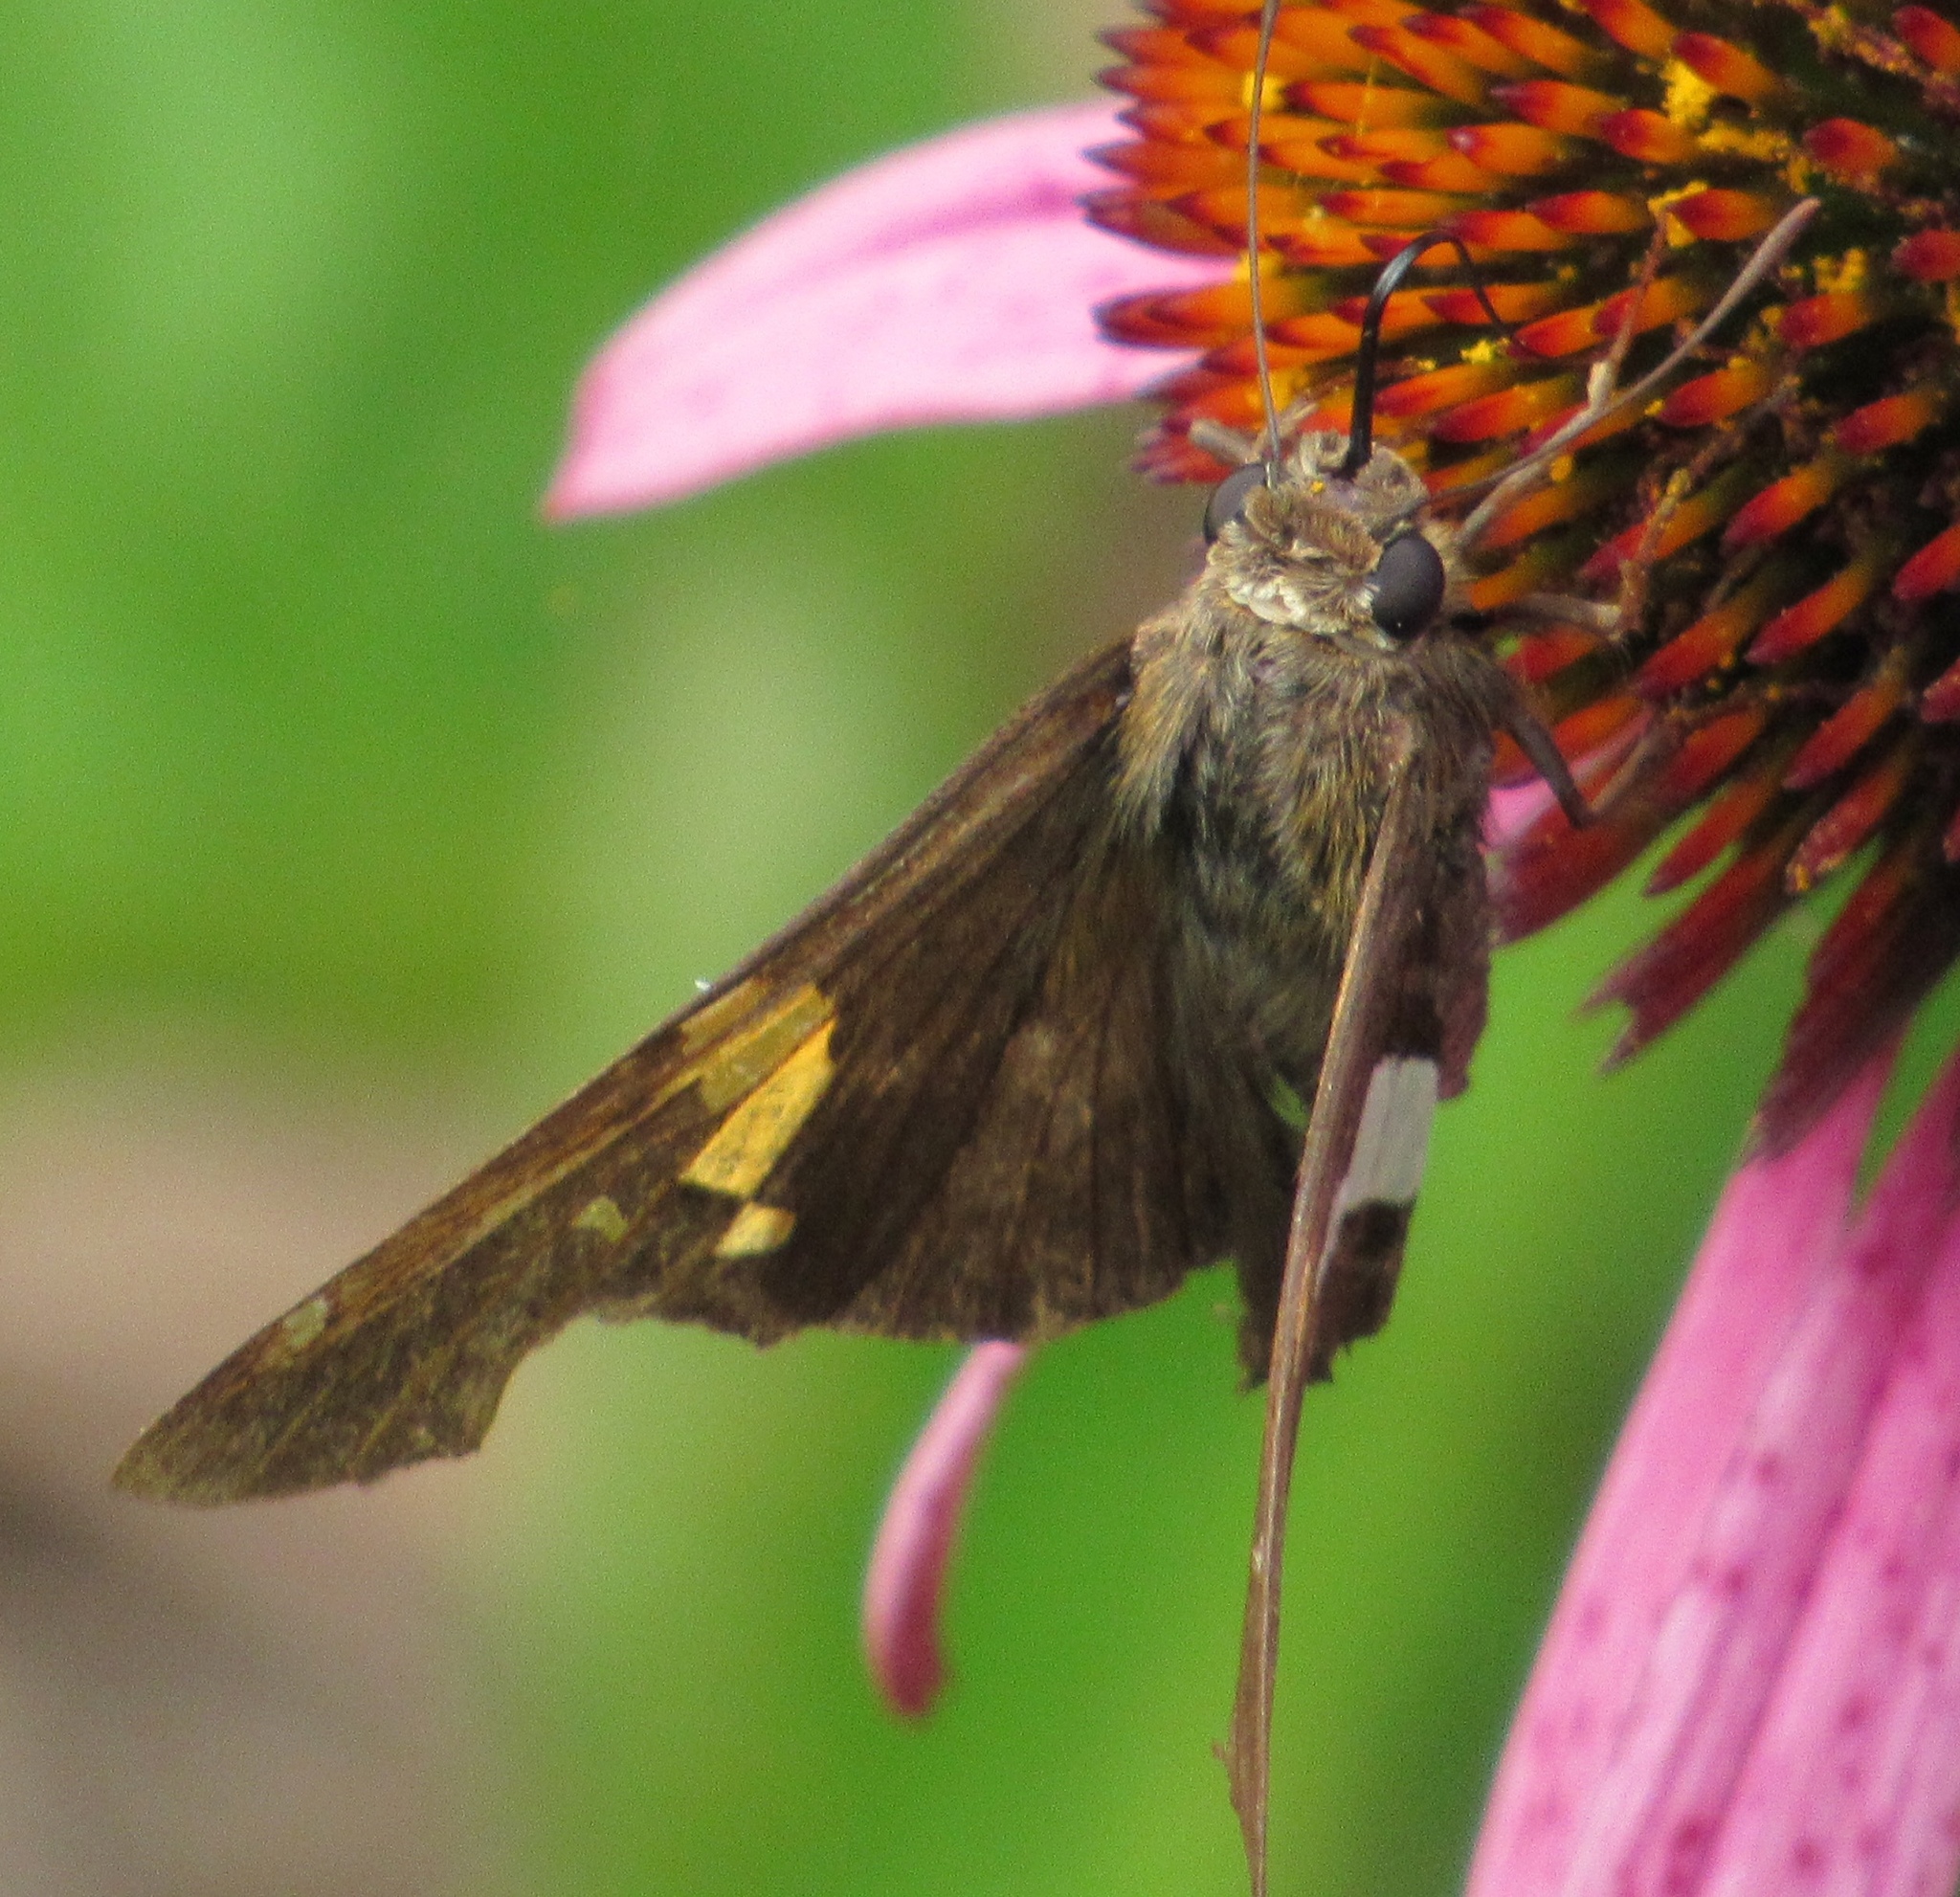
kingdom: Animalia
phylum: Arthropoda
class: Insecta
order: Lepidoptera
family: Hesperiidae
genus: Epargyreus
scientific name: Epargyreus clarus
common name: Silver-spotted skipper
